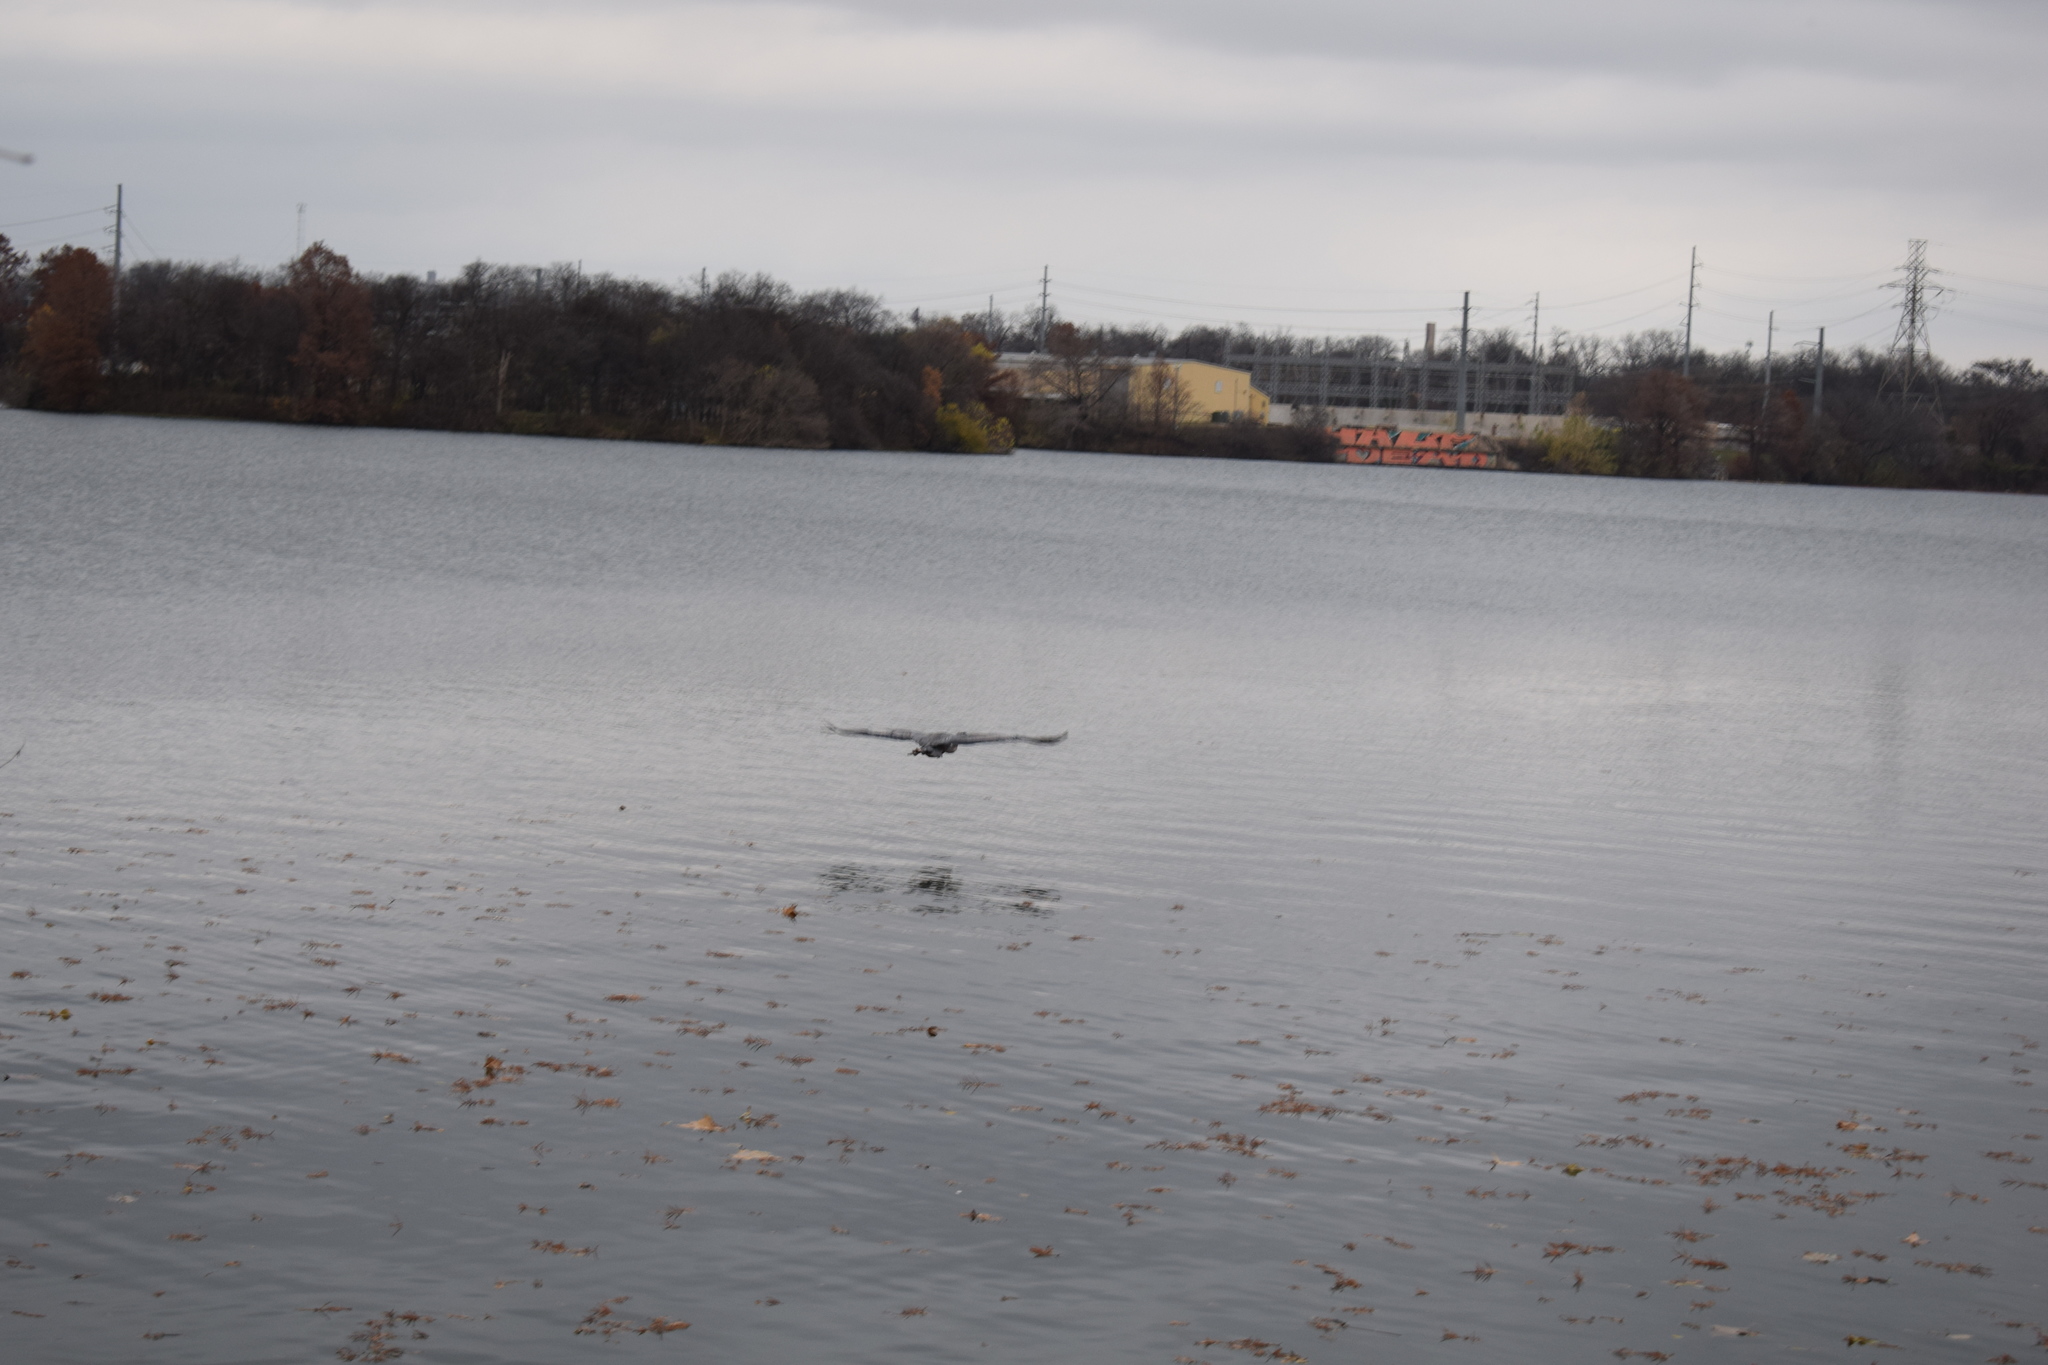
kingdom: Animalia
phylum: Chordata
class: Aves
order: Pelecaniformes
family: Ardeidae
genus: Ardea
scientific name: Ardea herodias
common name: Great blue heron
